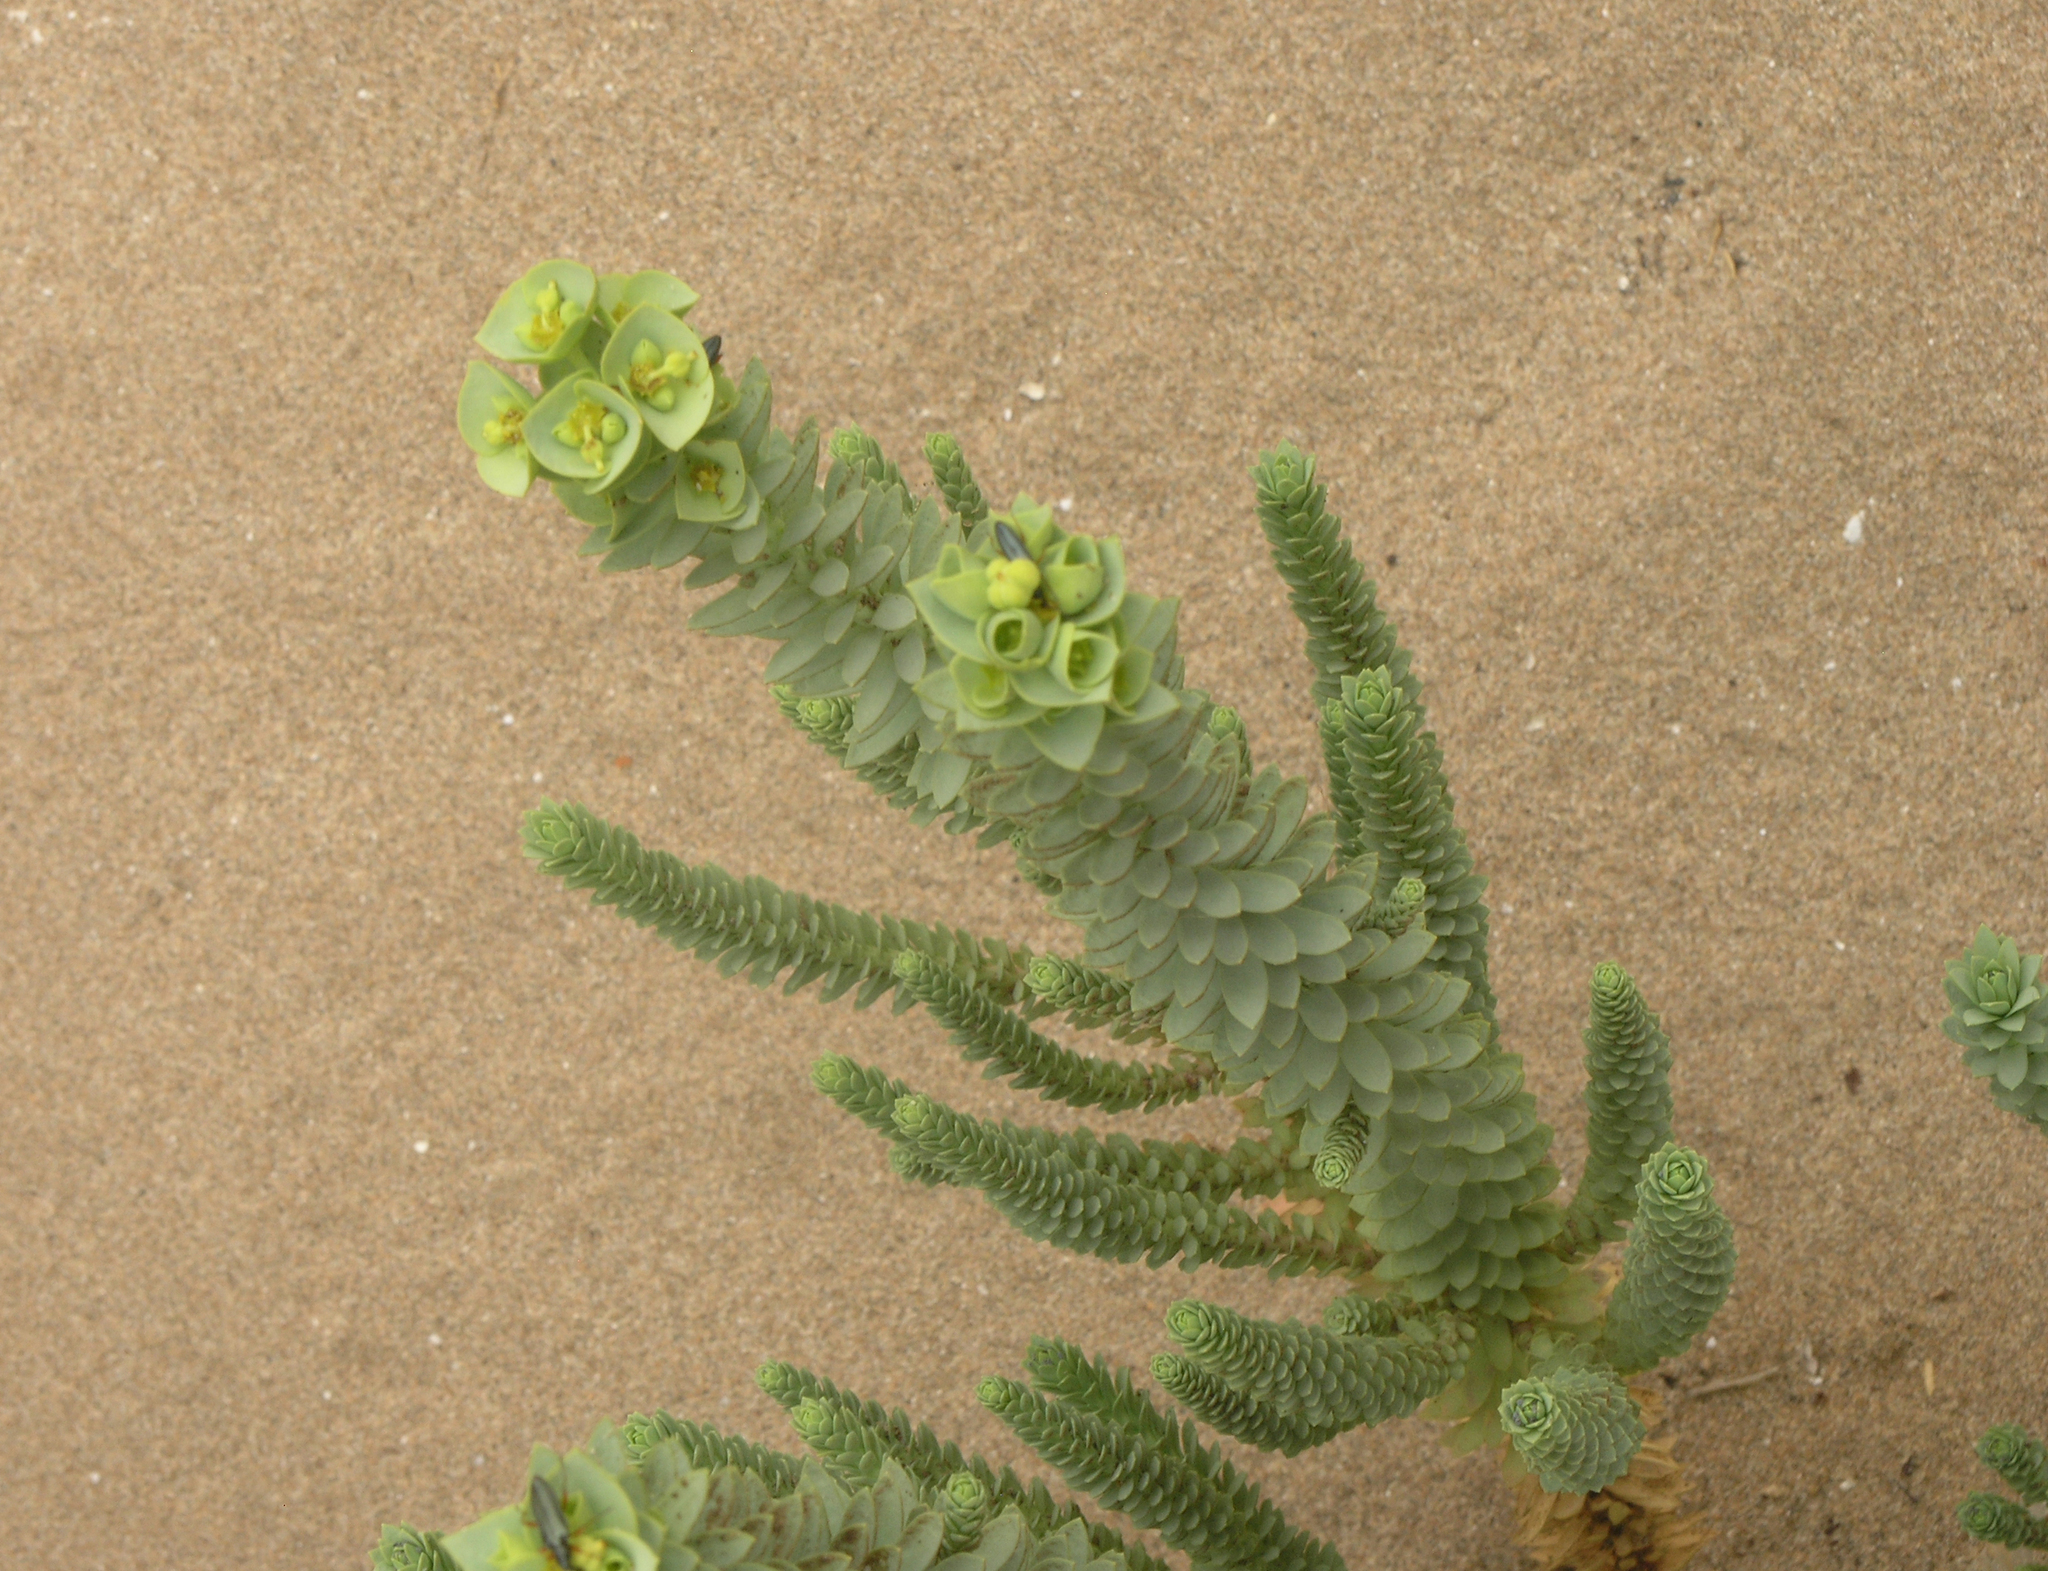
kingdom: Plantae
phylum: Tracheophyta
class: Magnoliopsida
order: Malpighiales
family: Euphorbiaceae
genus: Euphorbia
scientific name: Euphorbia paralias
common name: Sea spurge
